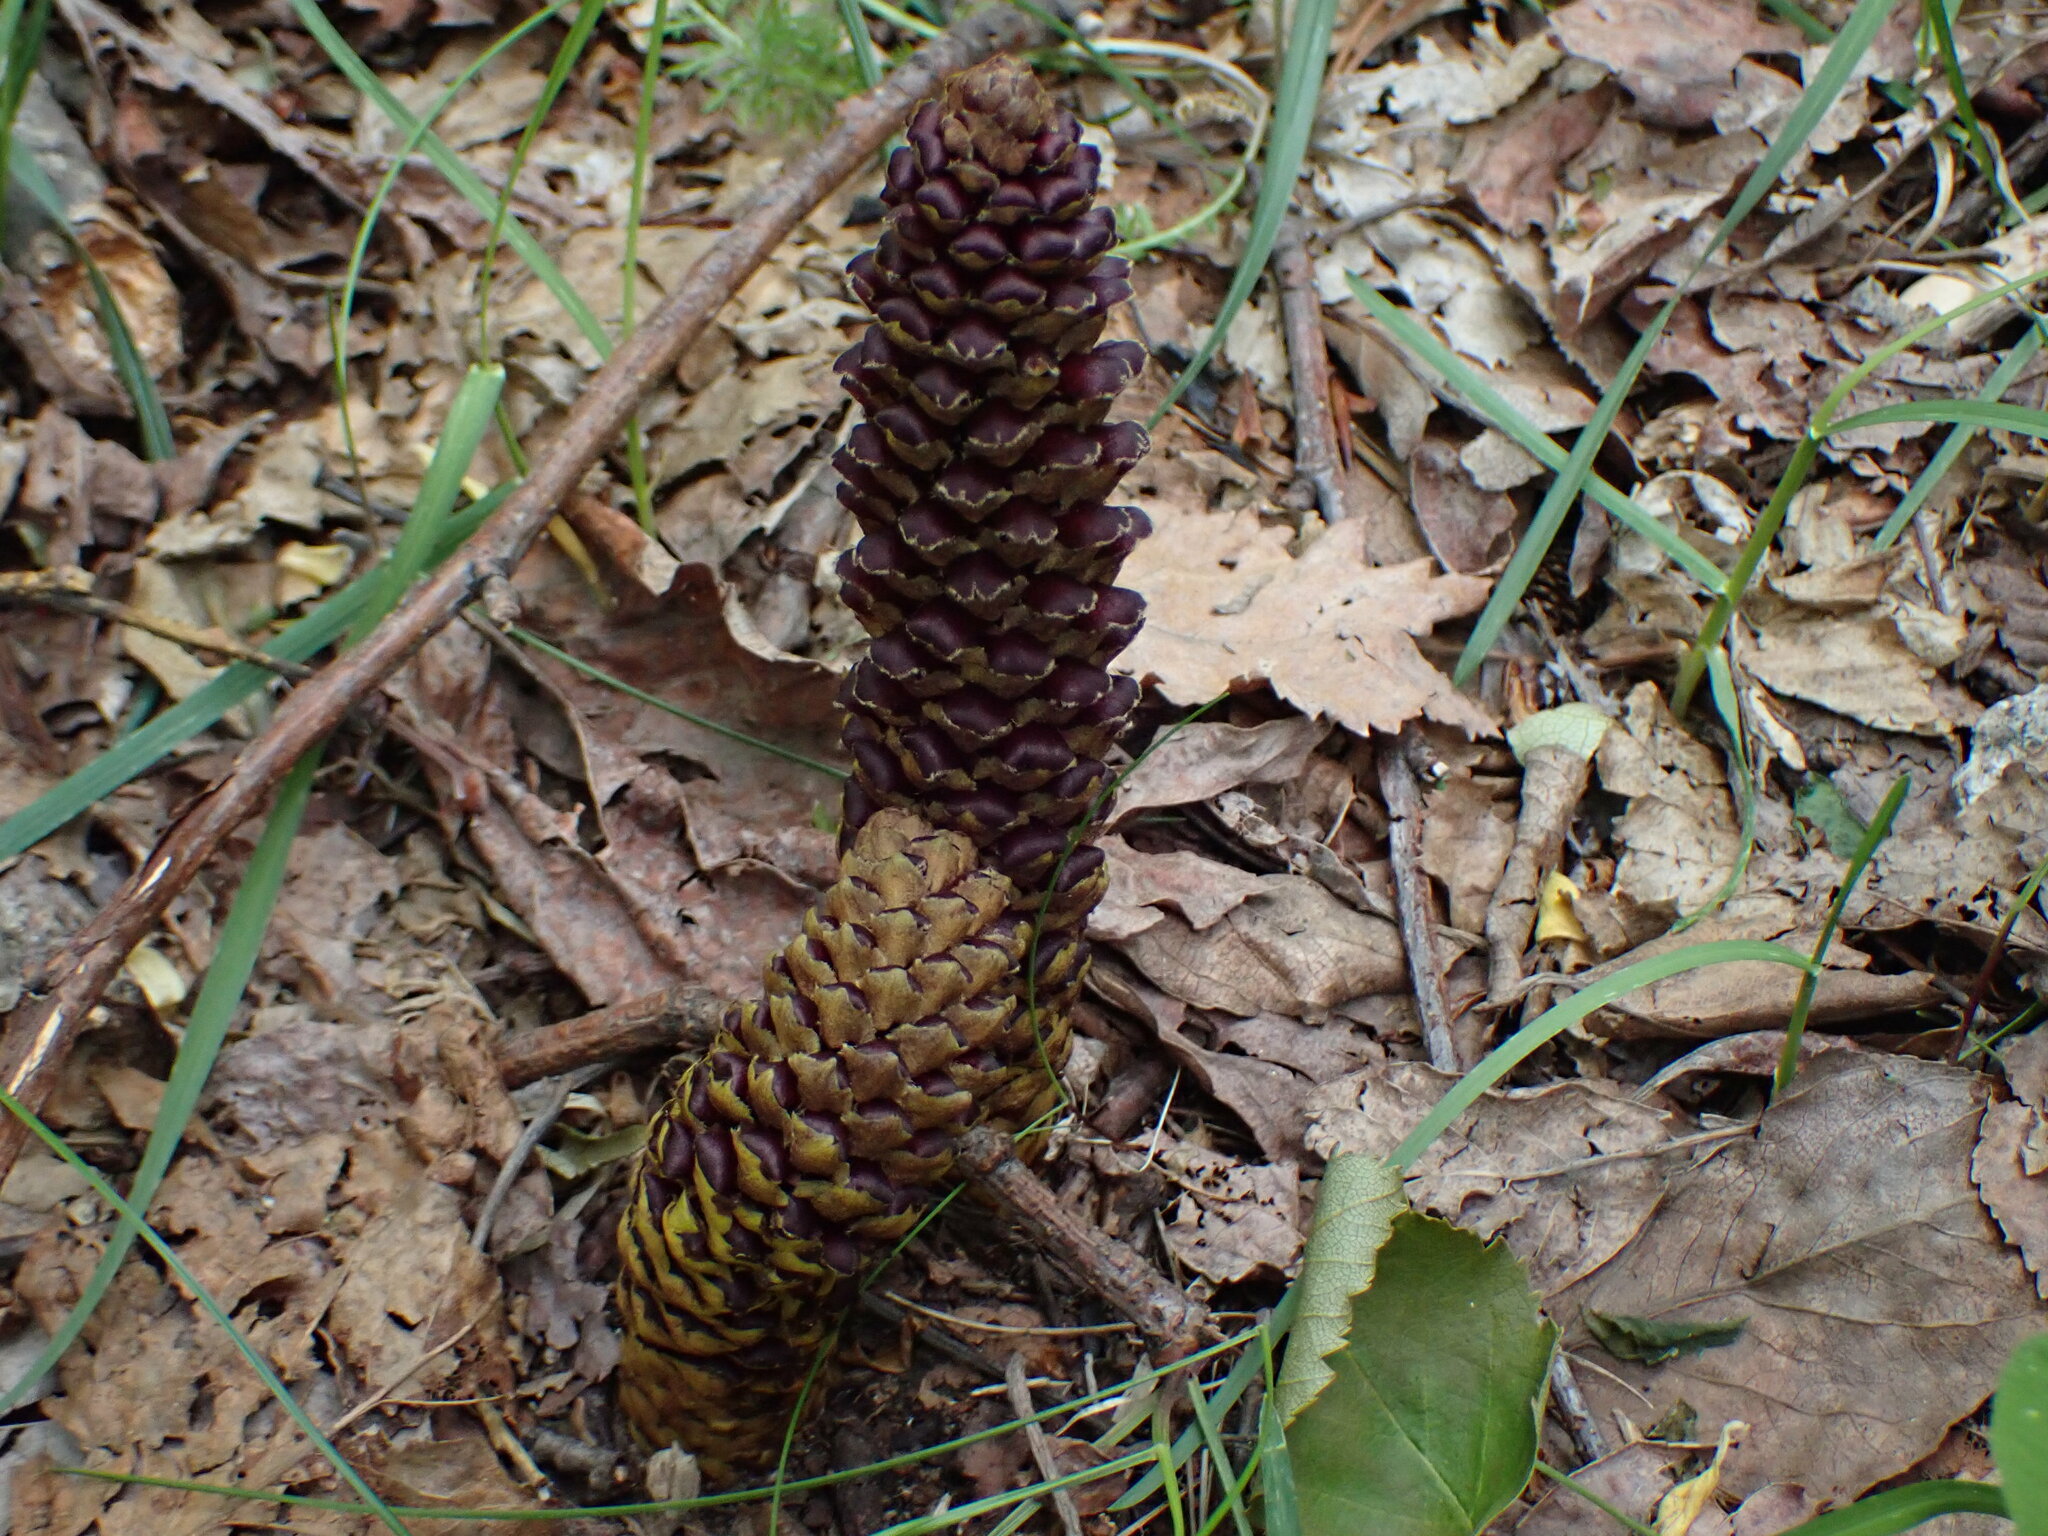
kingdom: Plantae
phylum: Tracheophyta
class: Magnoliopsida
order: Lamiales
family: Orobanchaceae
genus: Boschniakia
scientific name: Boschniakia rossica
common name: Poque
